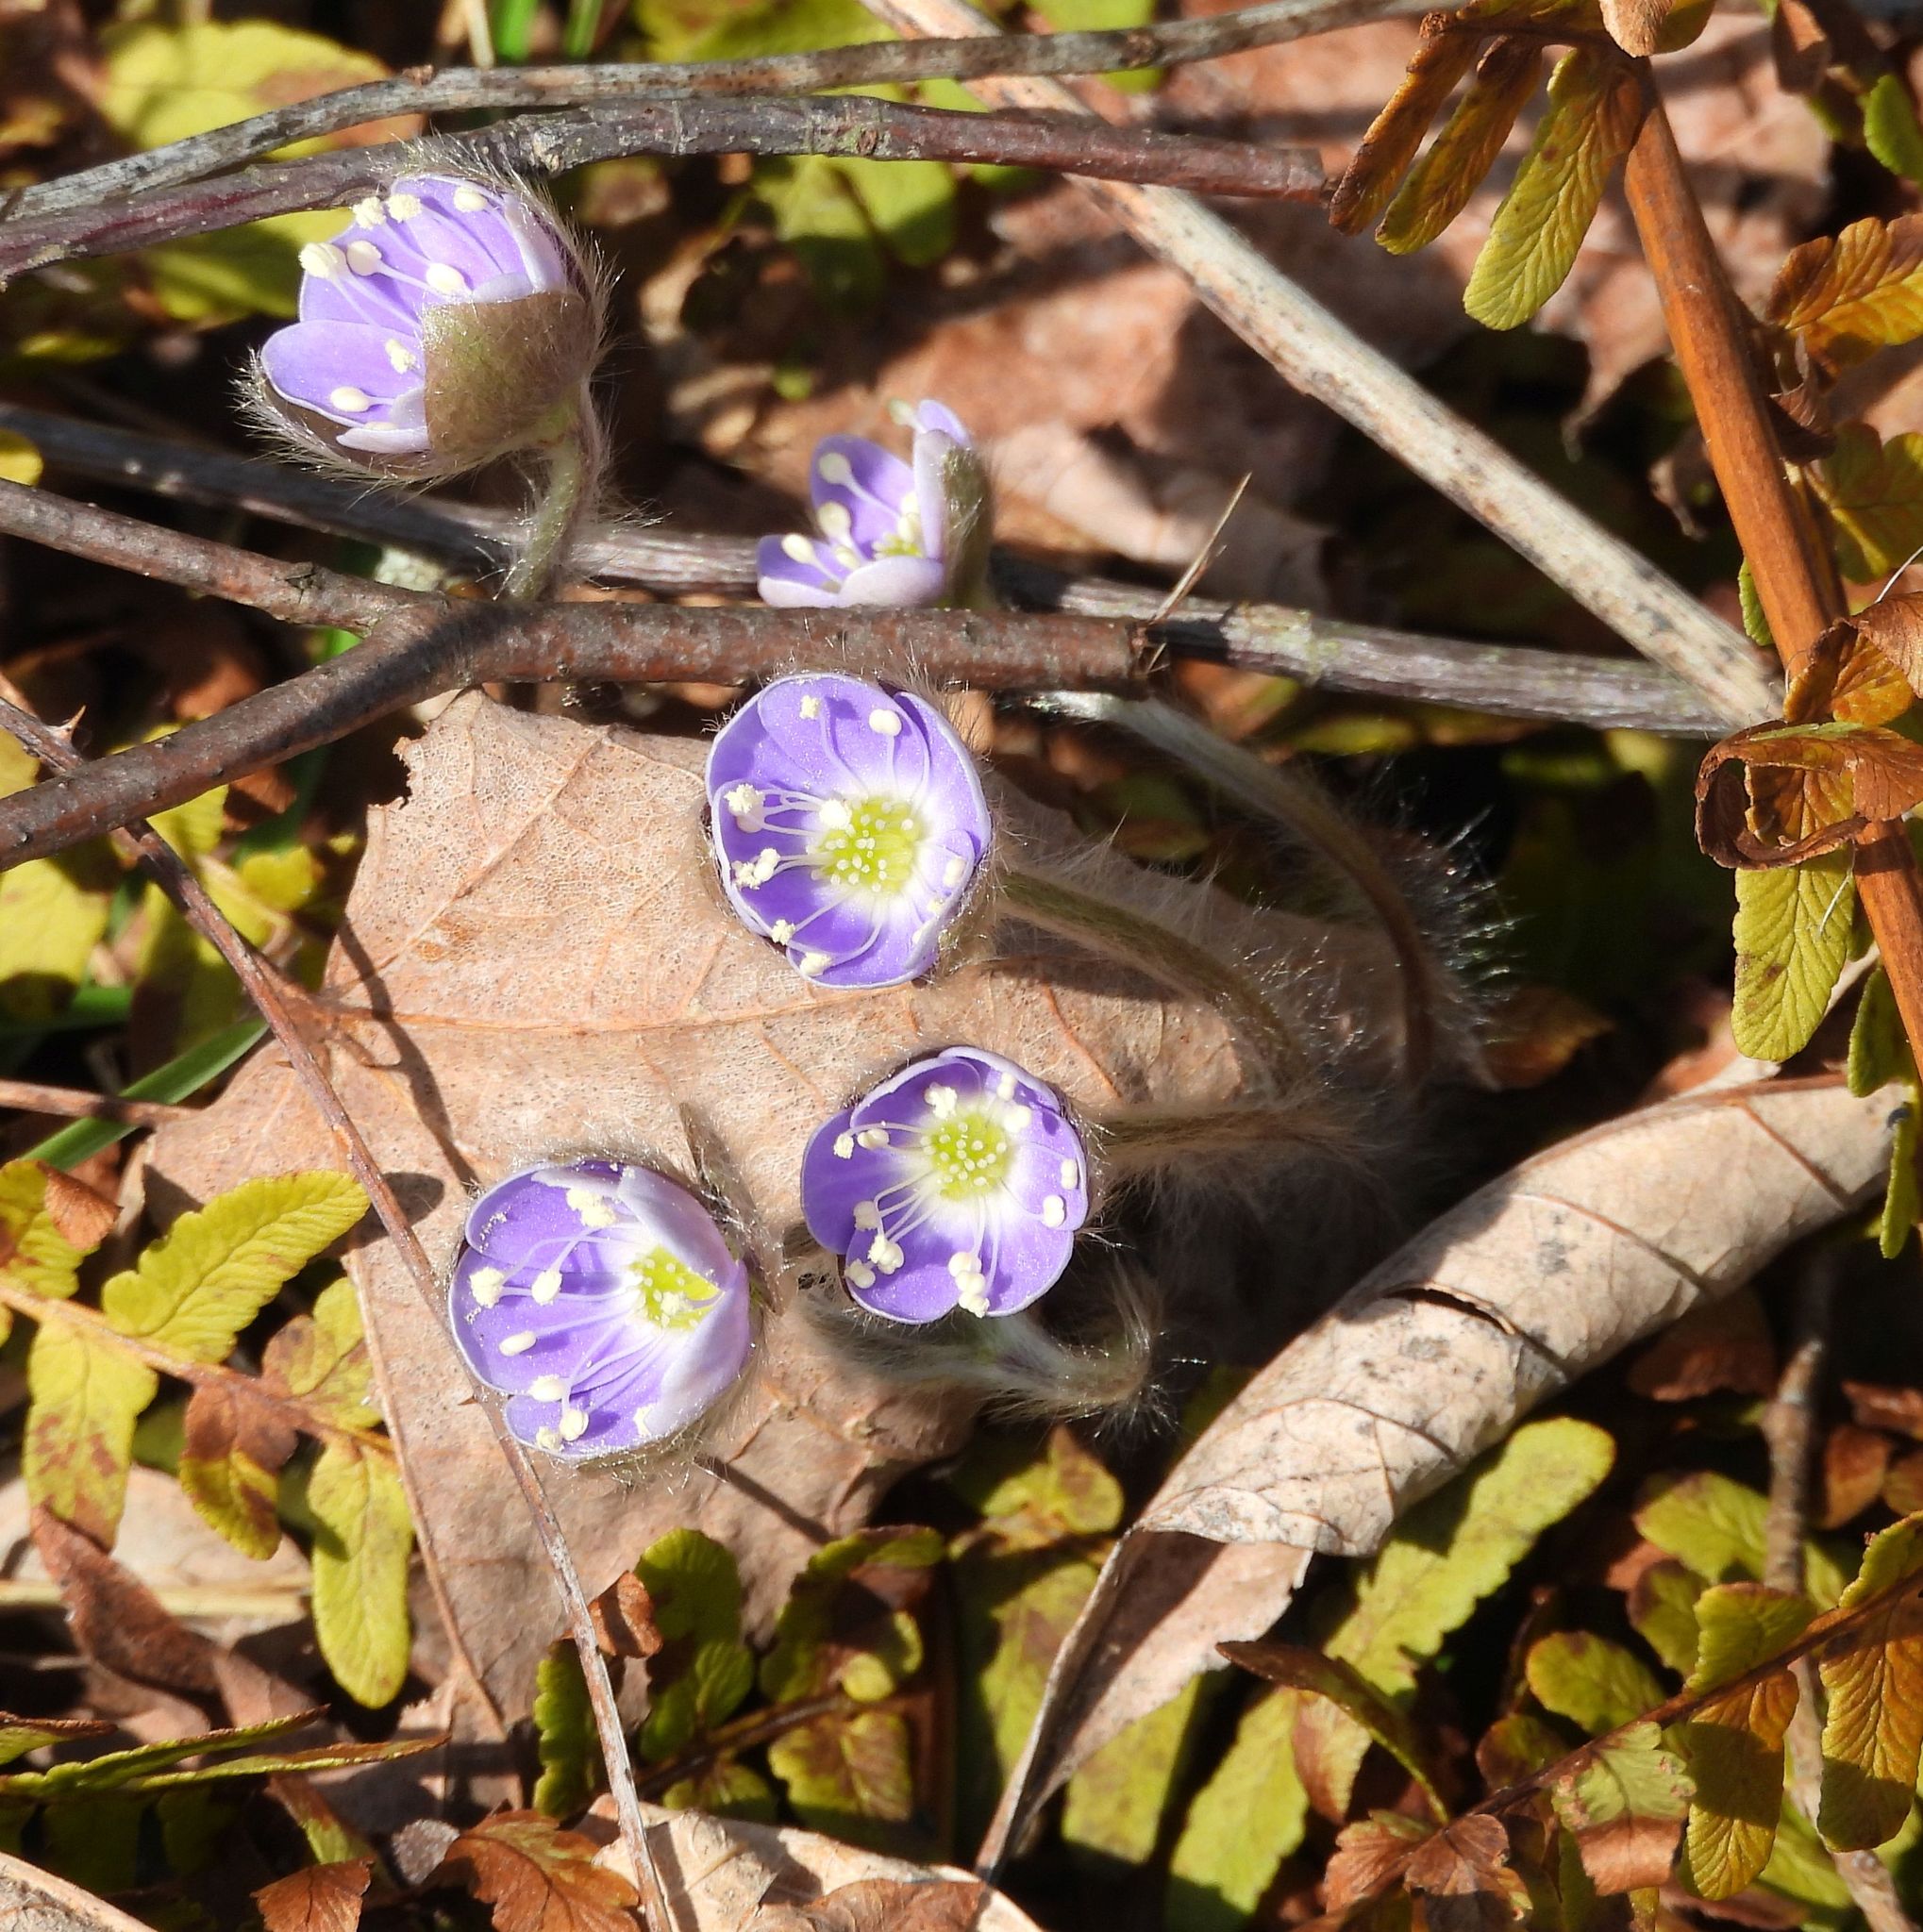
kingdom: Plantae
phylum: Tracheophyta
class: Magnoliopsida
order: Ranunculales
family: Ranunculaceae
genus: Hepatica
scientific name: Hepatica acutiloba
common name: Sharp-lobed hepatica
